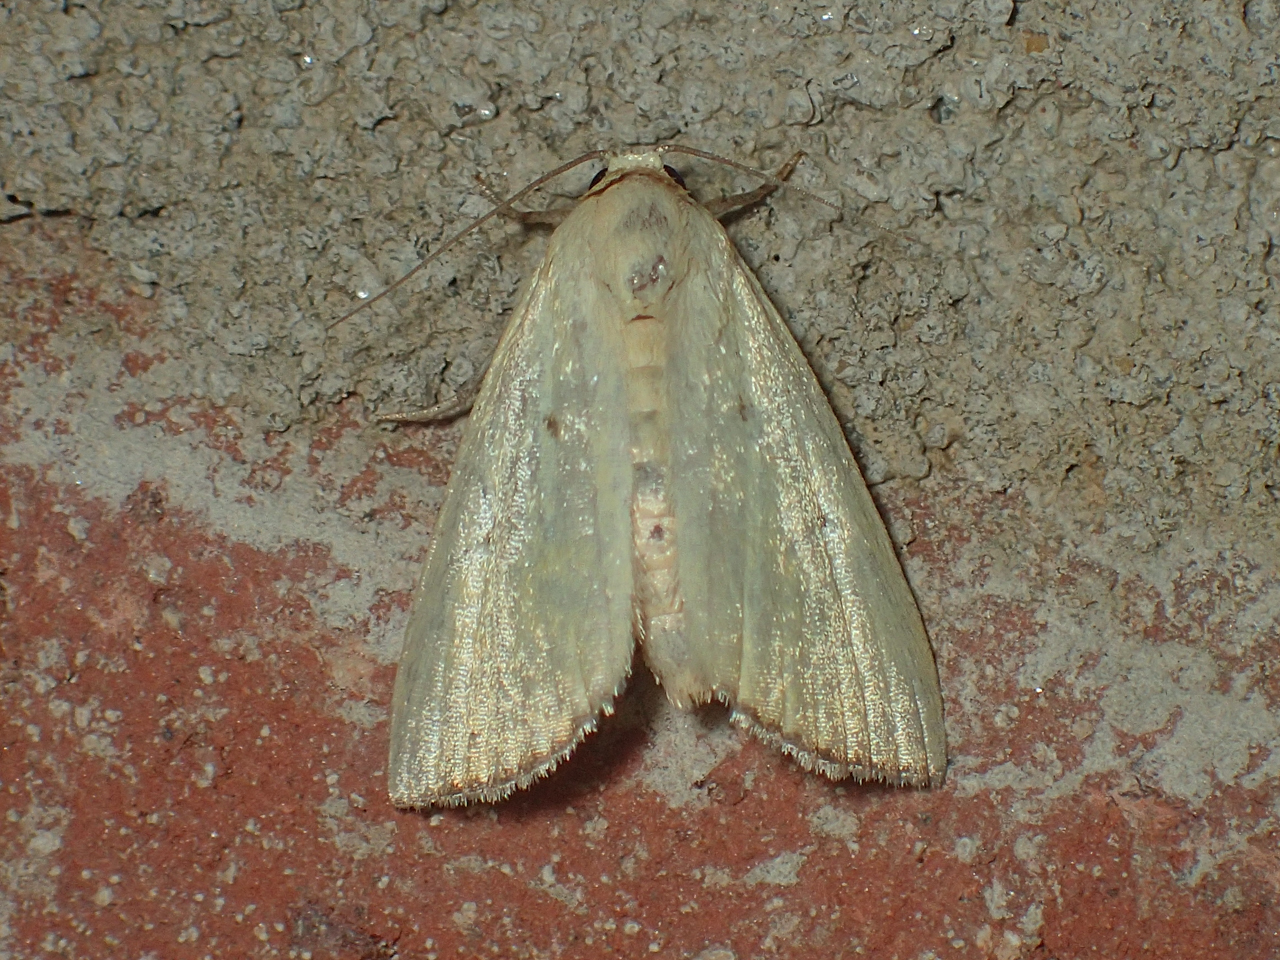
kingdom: Animalia
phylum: Arthropoda
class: Insecta
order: Lepidoptera
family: Noctuidae
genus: Marimatha
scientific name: Marimatha nigrofimbria
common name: Black-bordered lemon moth
